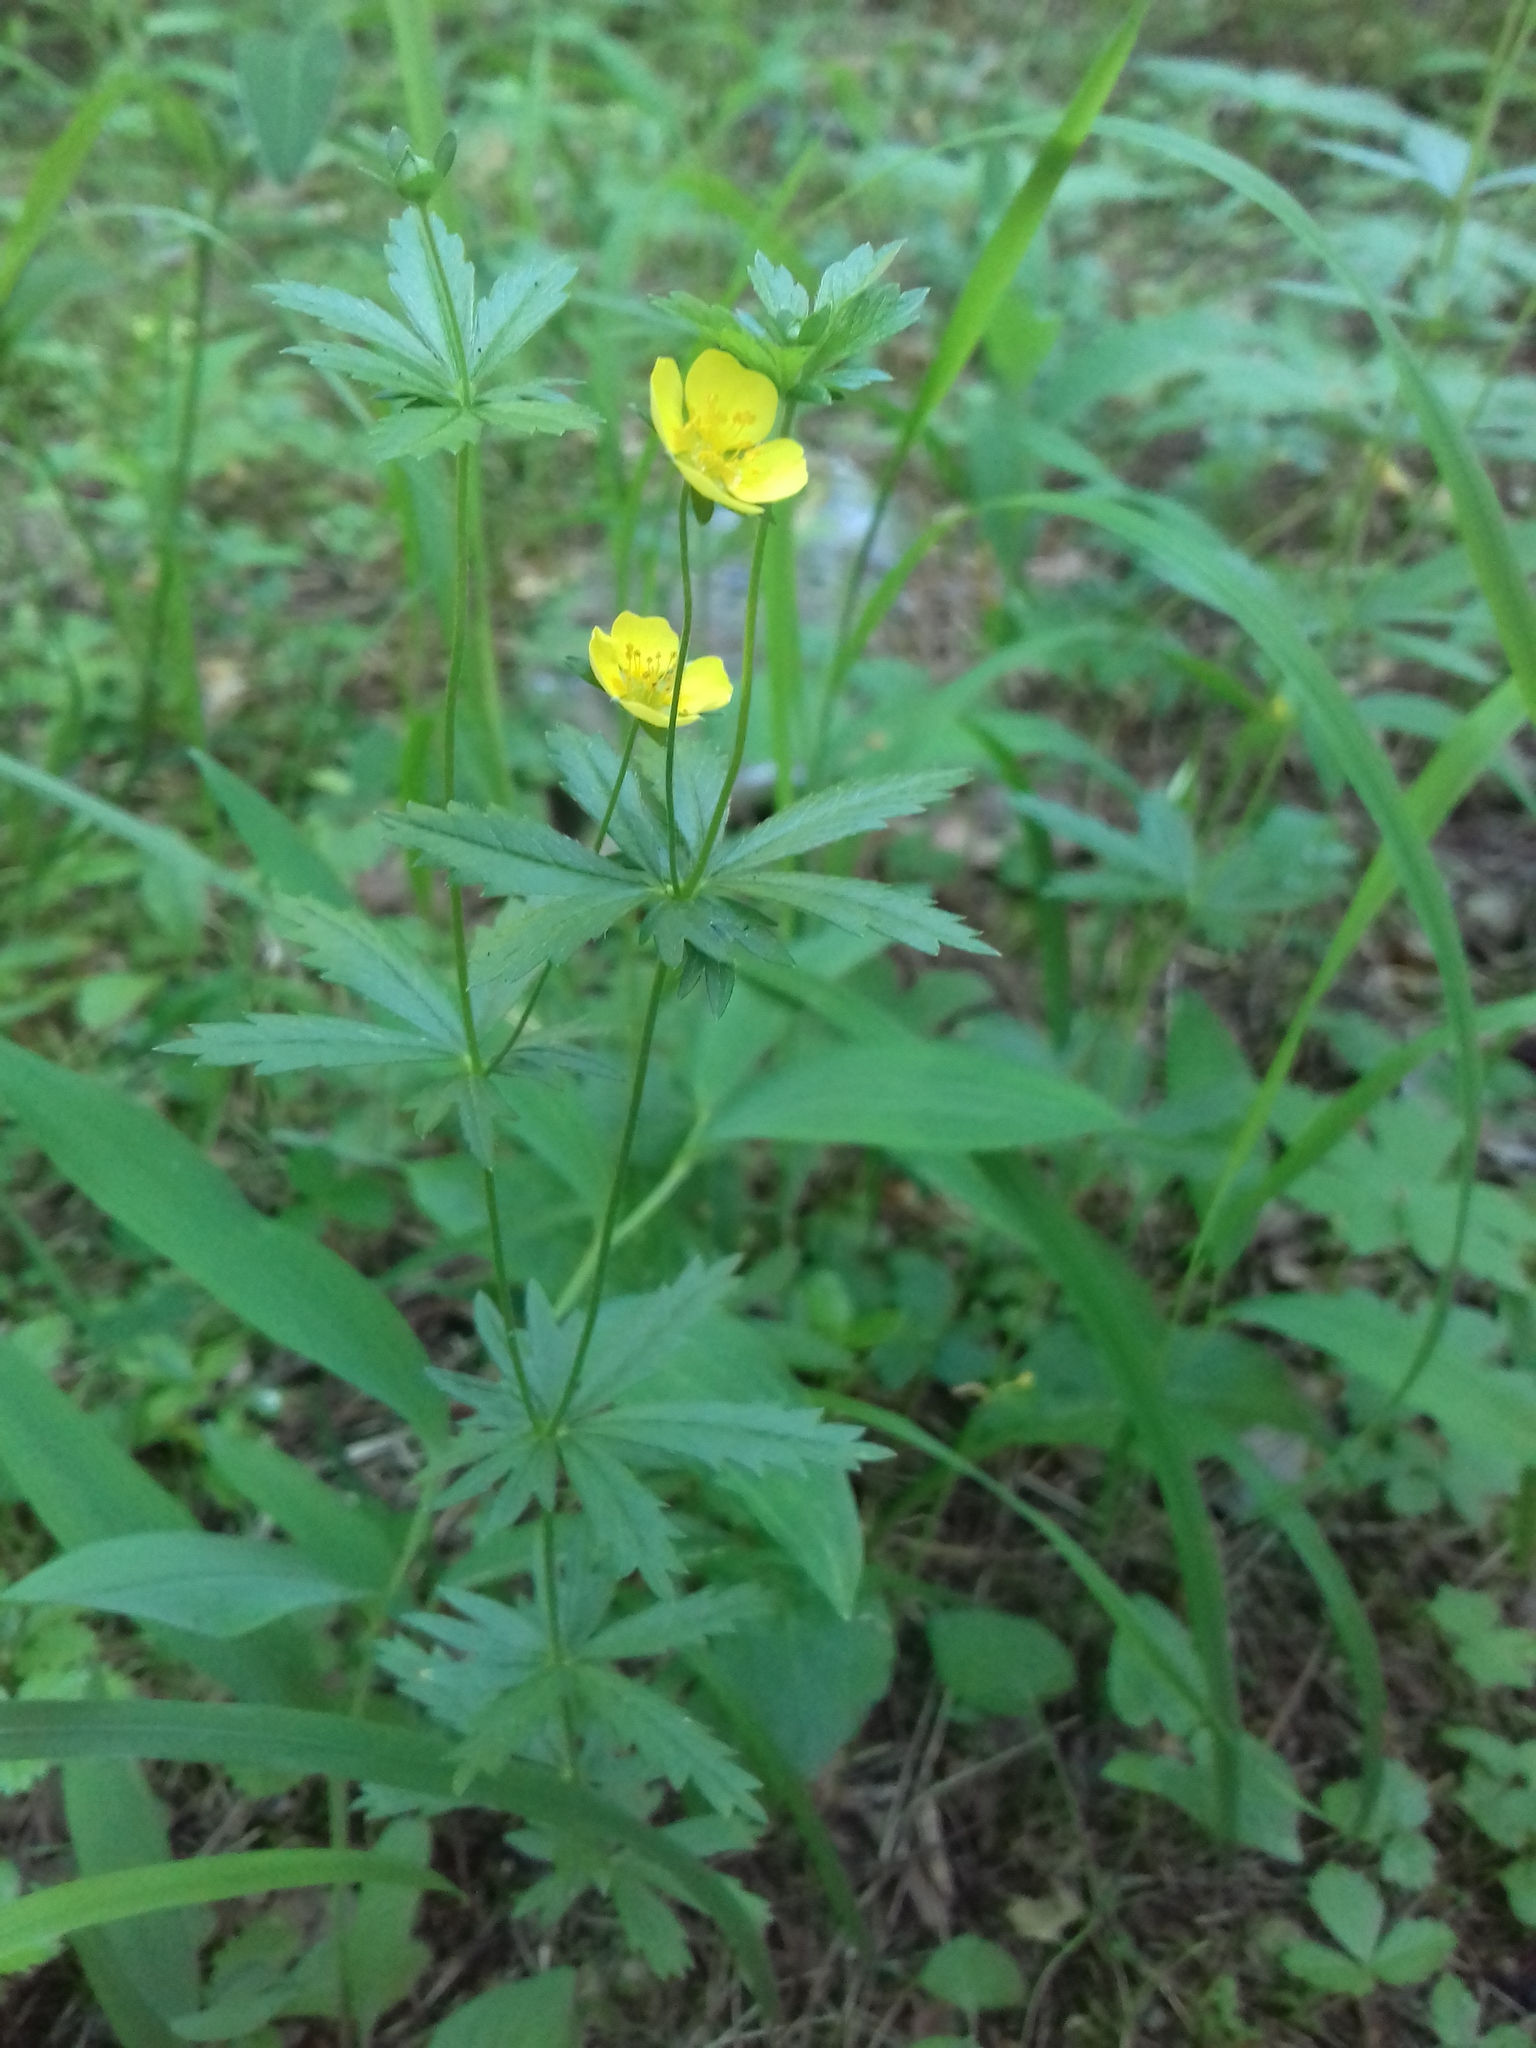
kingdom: Plantae
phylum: Tracheophyta
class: Magnoliopsida
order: Rosales
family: Rosaceae
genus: Potentilla
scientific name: Potentilla erecta
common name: Tormentil
